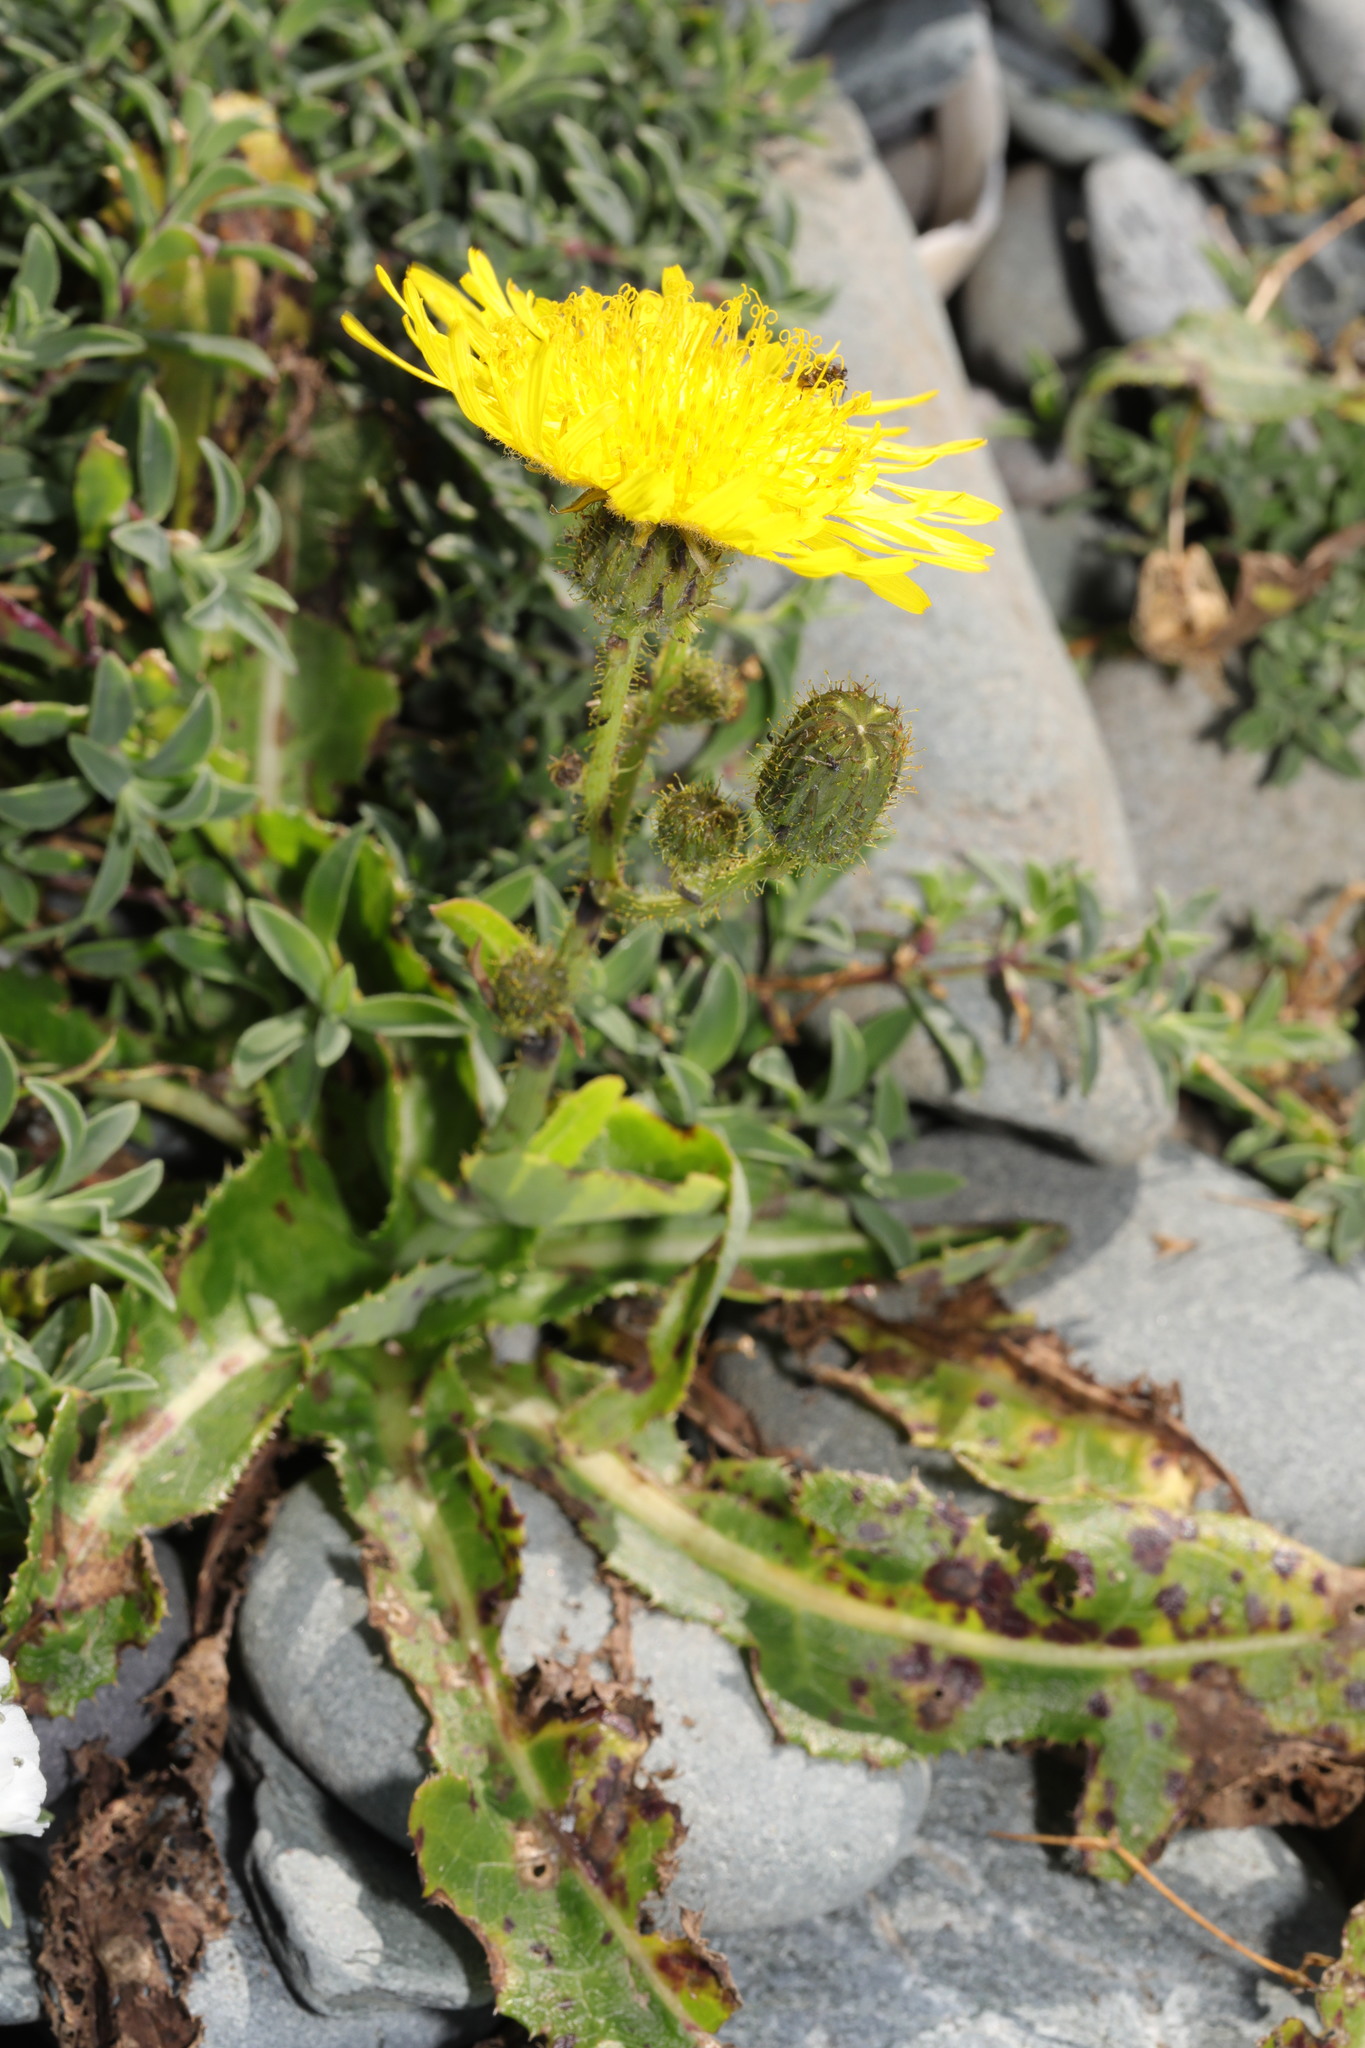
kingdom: Plantae
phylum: Tracheophyta
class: Magnoliopsida
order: Asterales
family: Asteraceae
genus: Sonchus
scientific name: Sonchus arvensis
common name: Perennial sow-thistle
